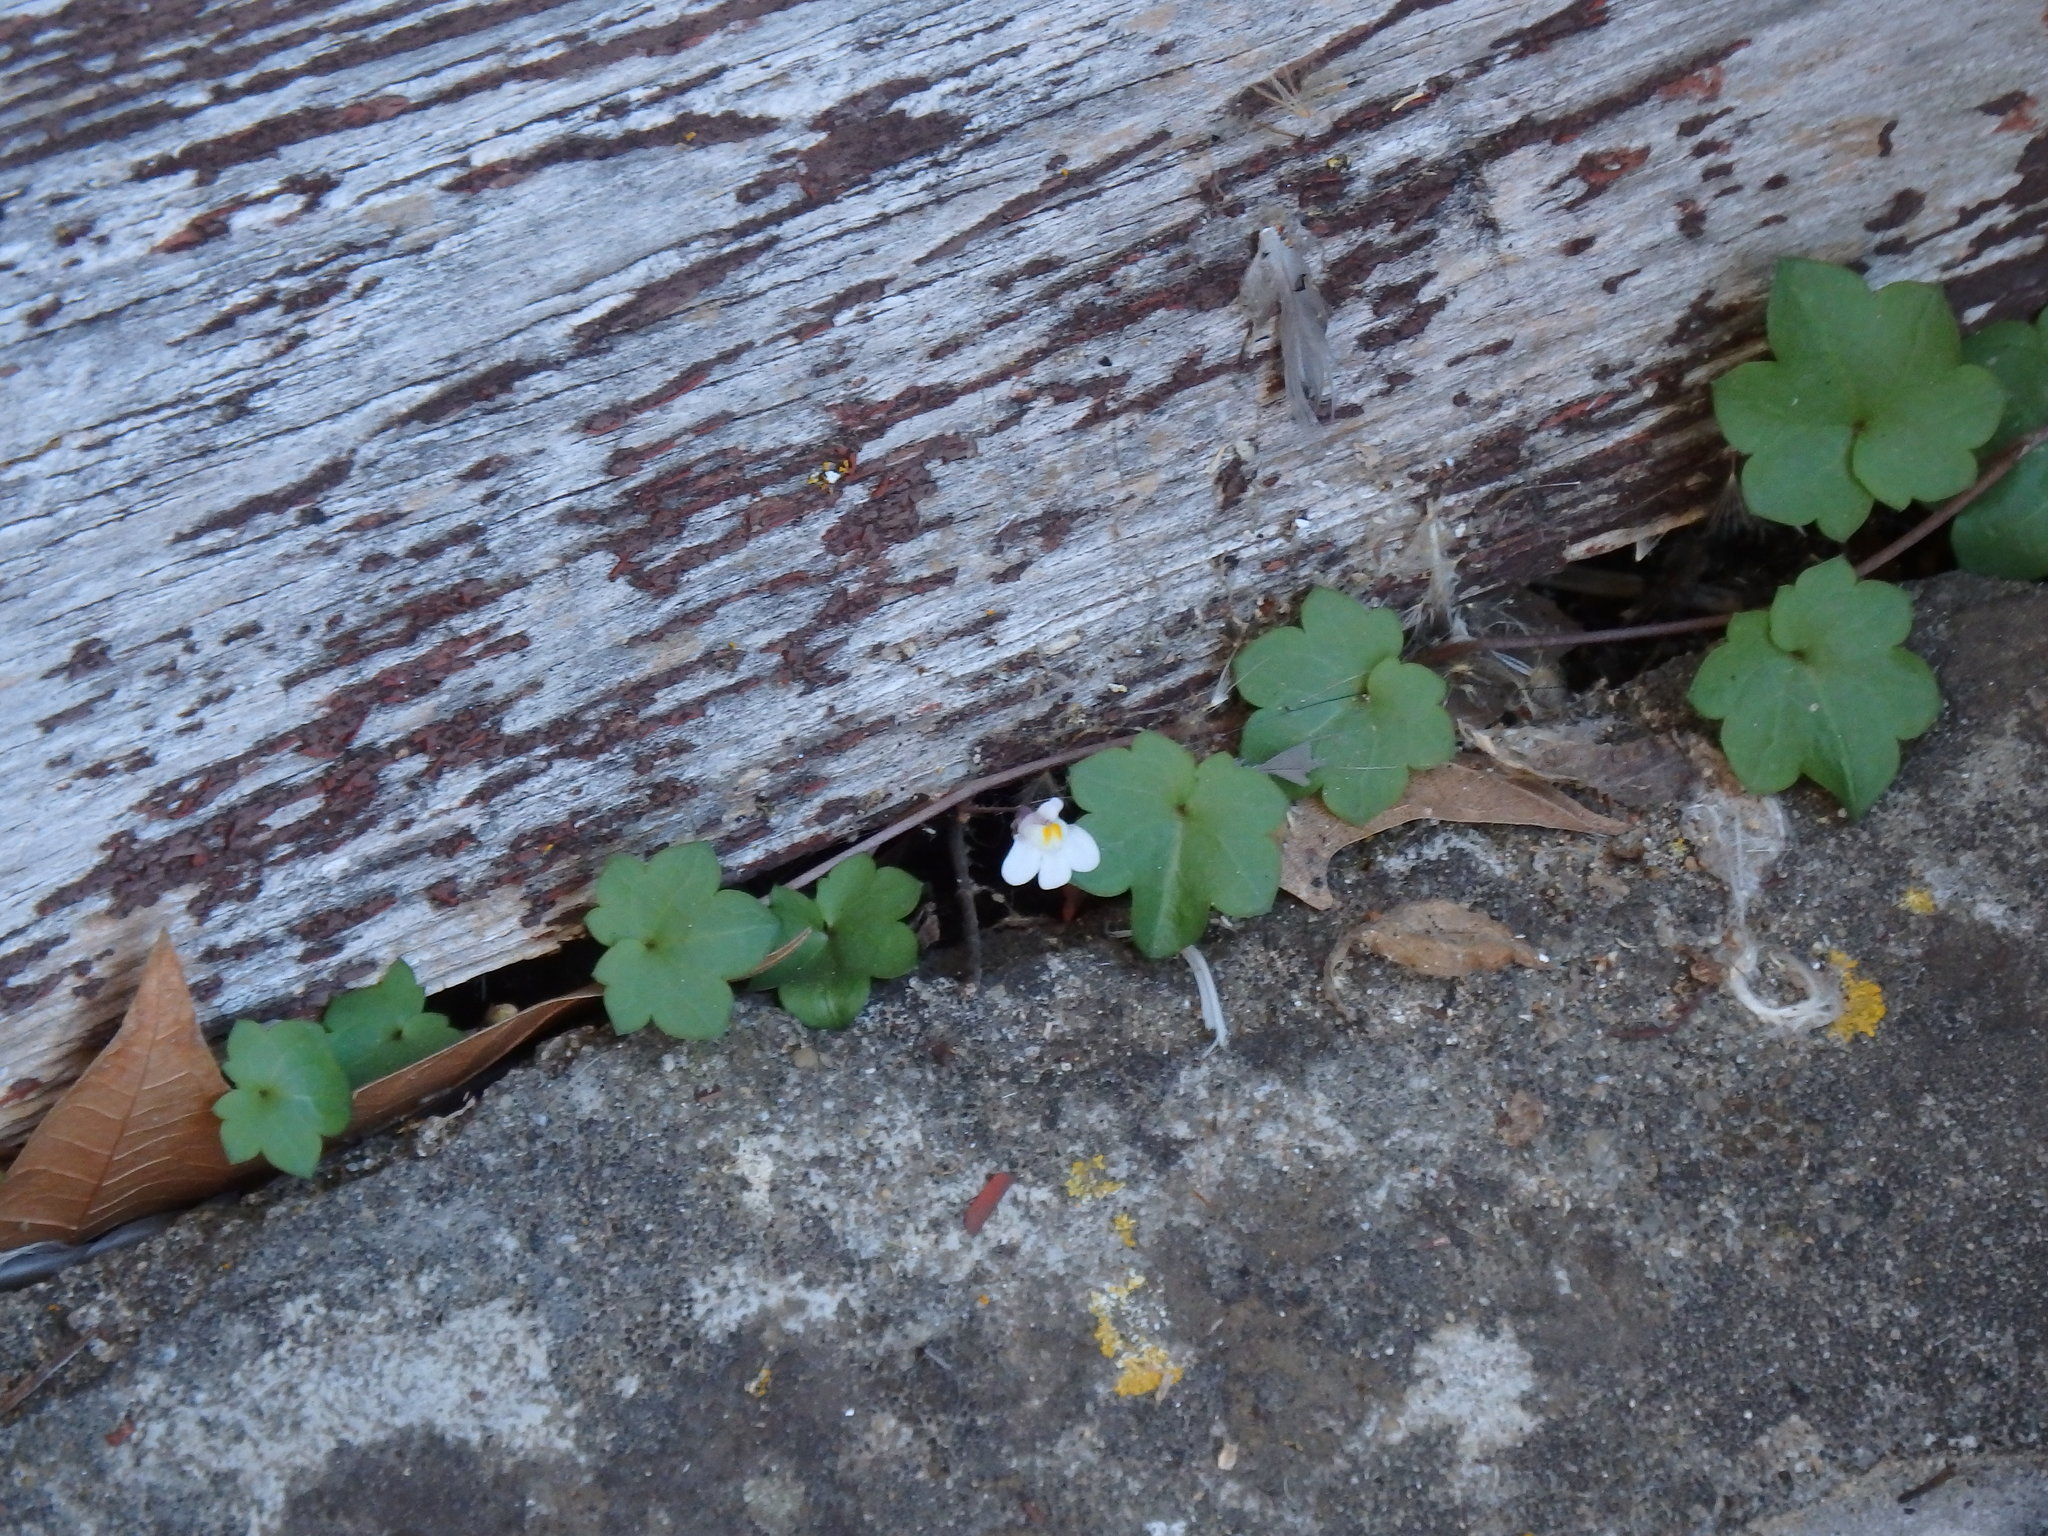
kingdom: Plantae
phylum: Tracheophyta
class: Magnoliopsida
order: Lamiales
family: Plantaginaceae
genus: Cymbalaria
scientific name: Cymbalaria muralis
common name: Ivy-leaved toadflax
